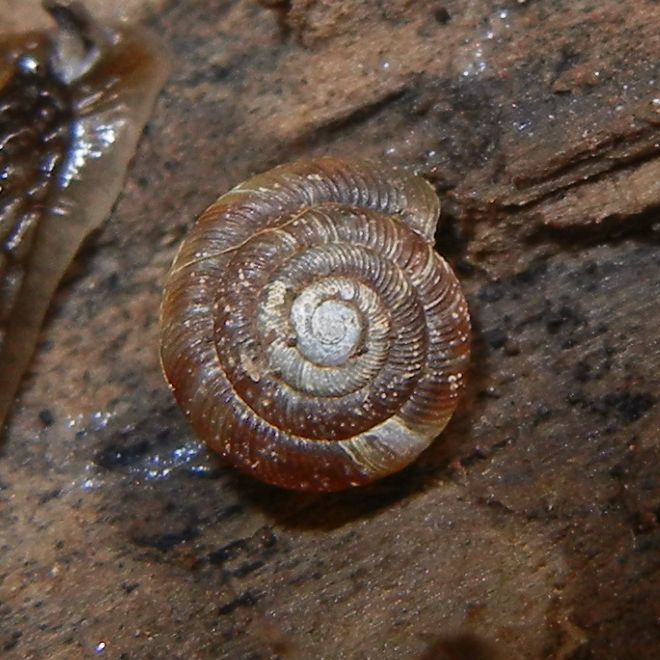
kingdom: Animalia
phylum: Mollusca
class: Gastropoda
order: Stylommatophora
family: Discidae
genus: Discus
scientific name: Discus rotundatus
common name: Rounded snail
